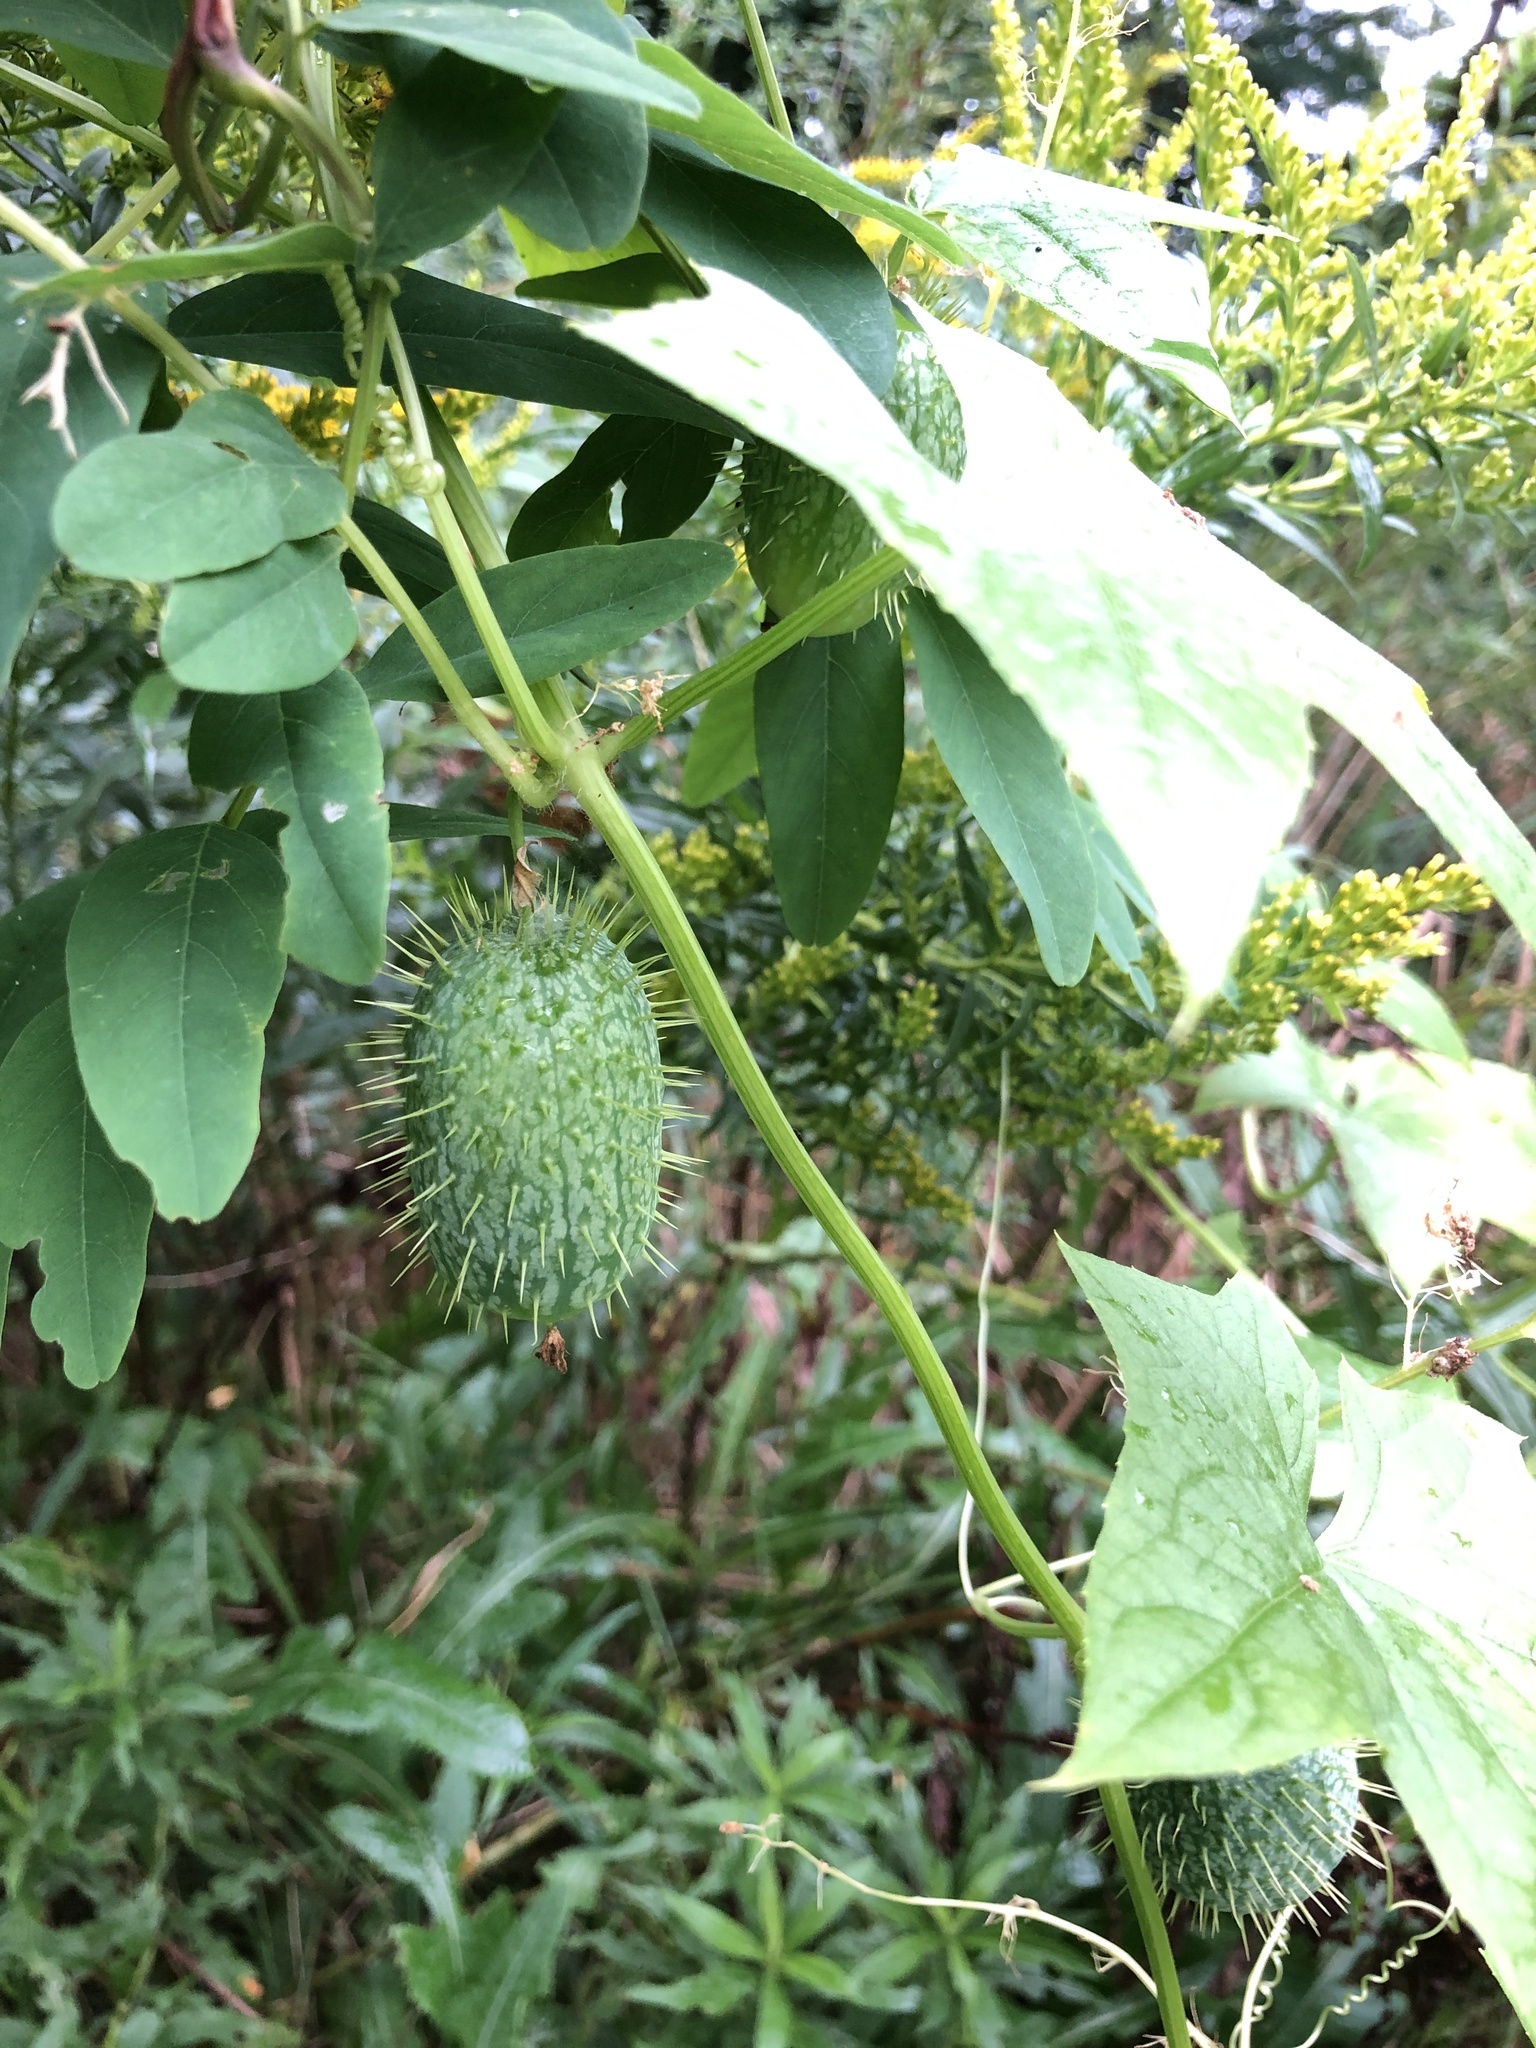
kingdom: Plantae
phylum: Tracheophyta
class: Magnoliopsida
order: Cucurbitales
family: Cucurbitaceae
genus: Echinocystis
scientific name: Echinocystis lobata
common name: Wild cucumber
